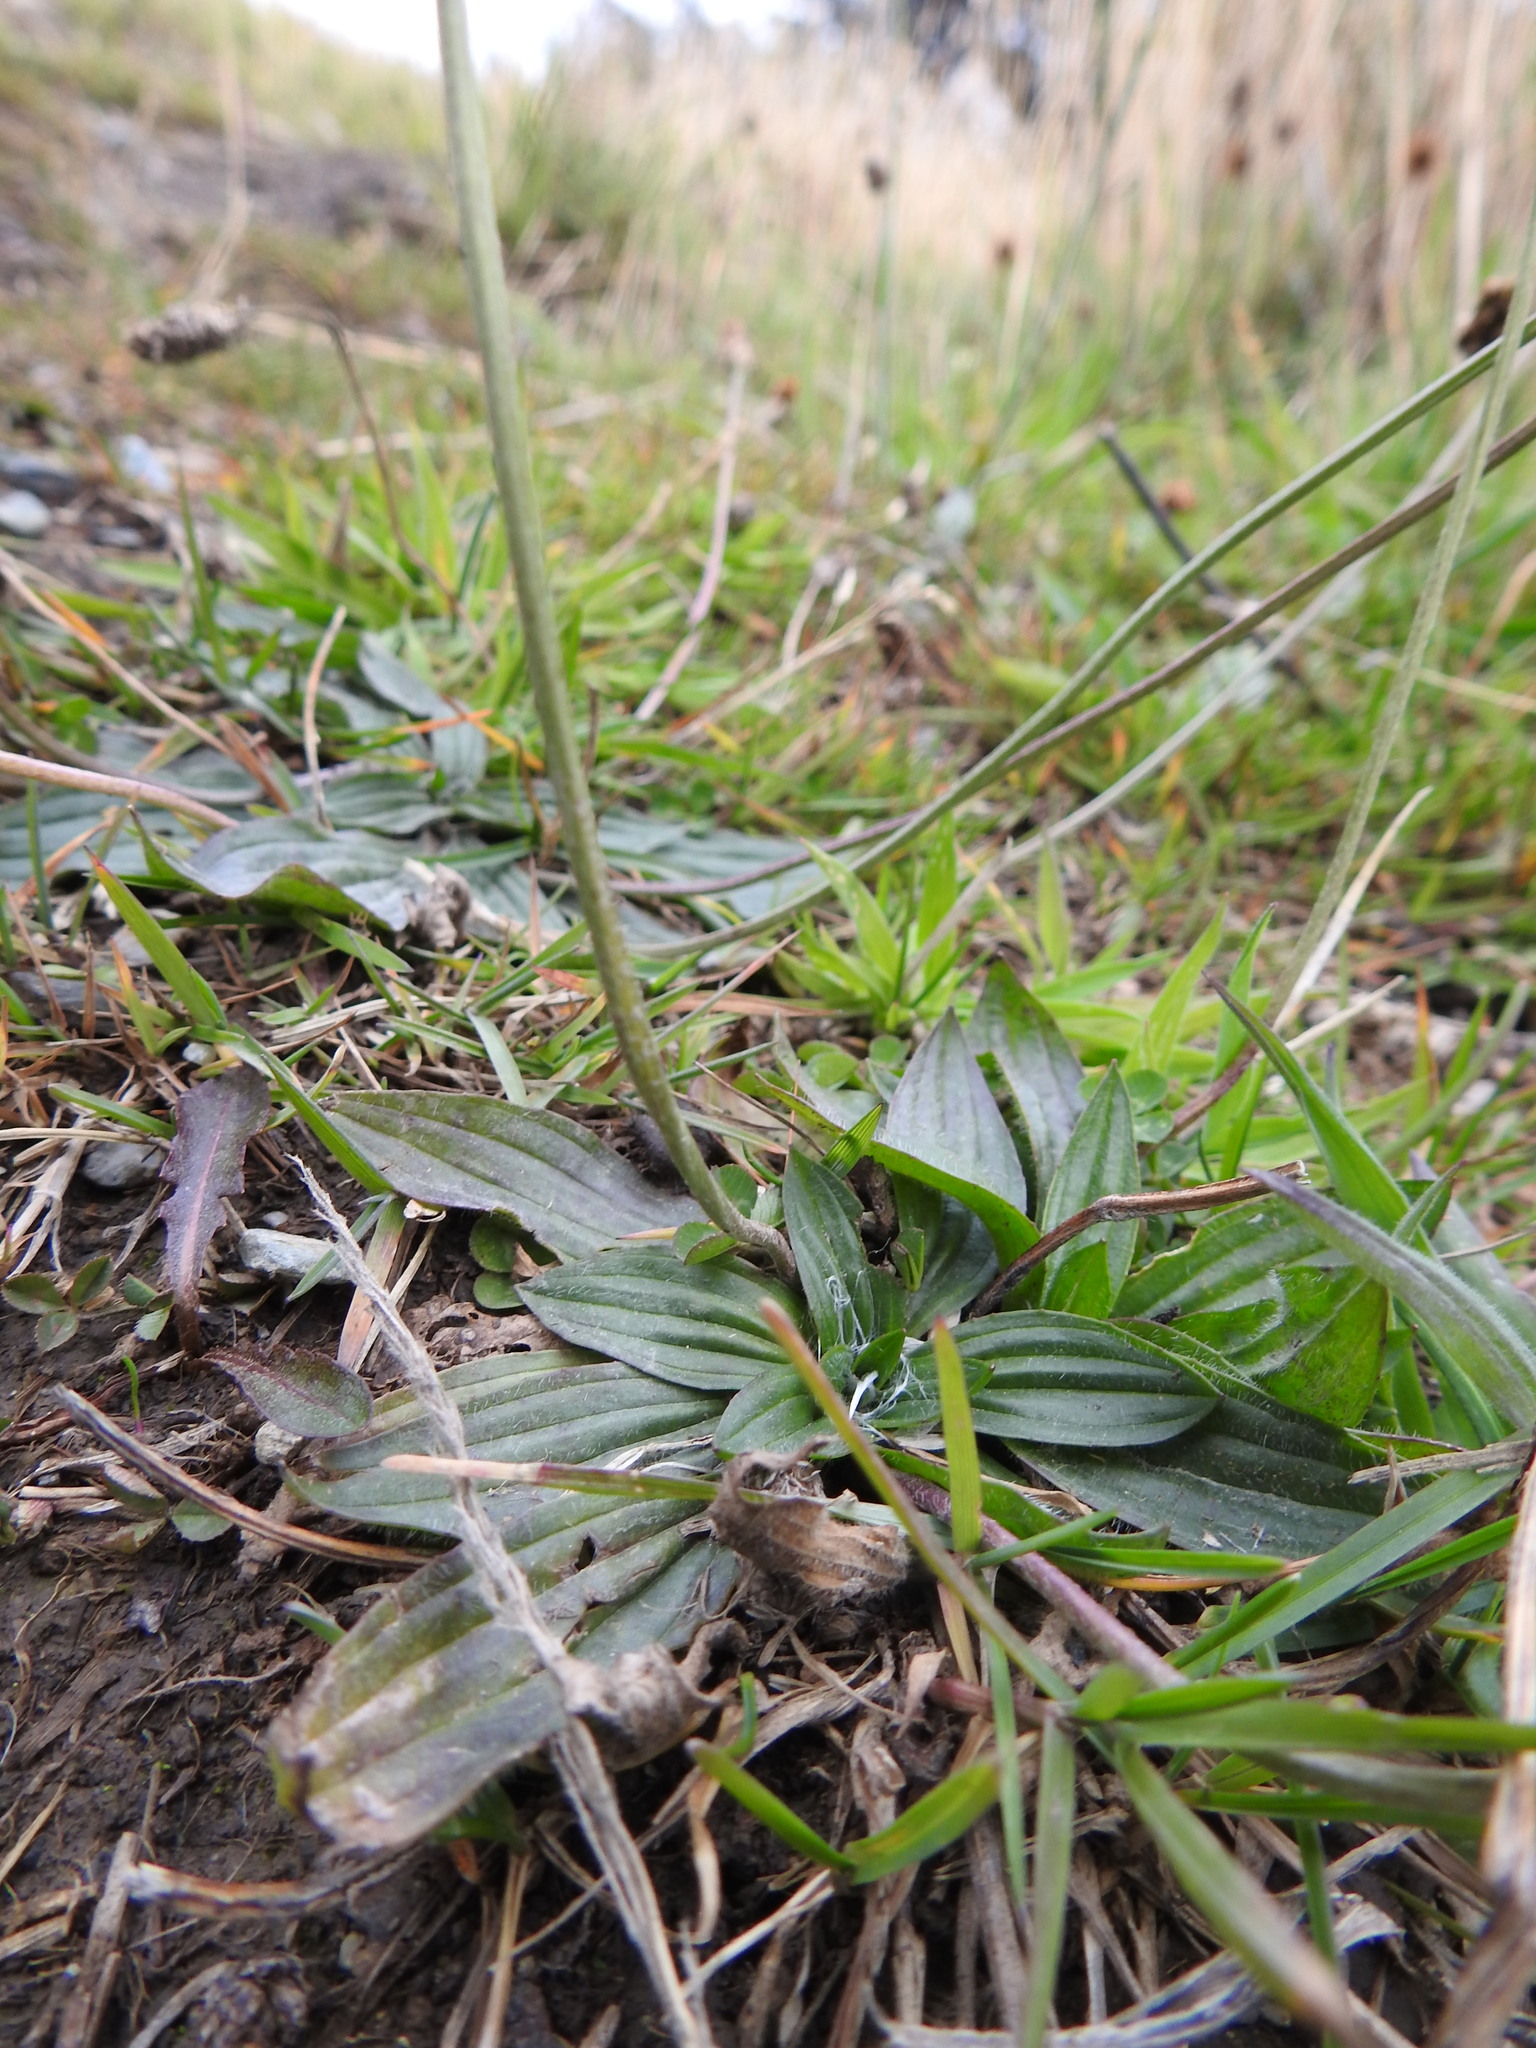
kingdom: Plantae
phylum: Tracheophyta
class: Magnoliopsida
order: Lamiales
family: Plantaginaceae
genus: Plantago
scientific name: Plantago lanceolata
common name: Ribwort plantain
